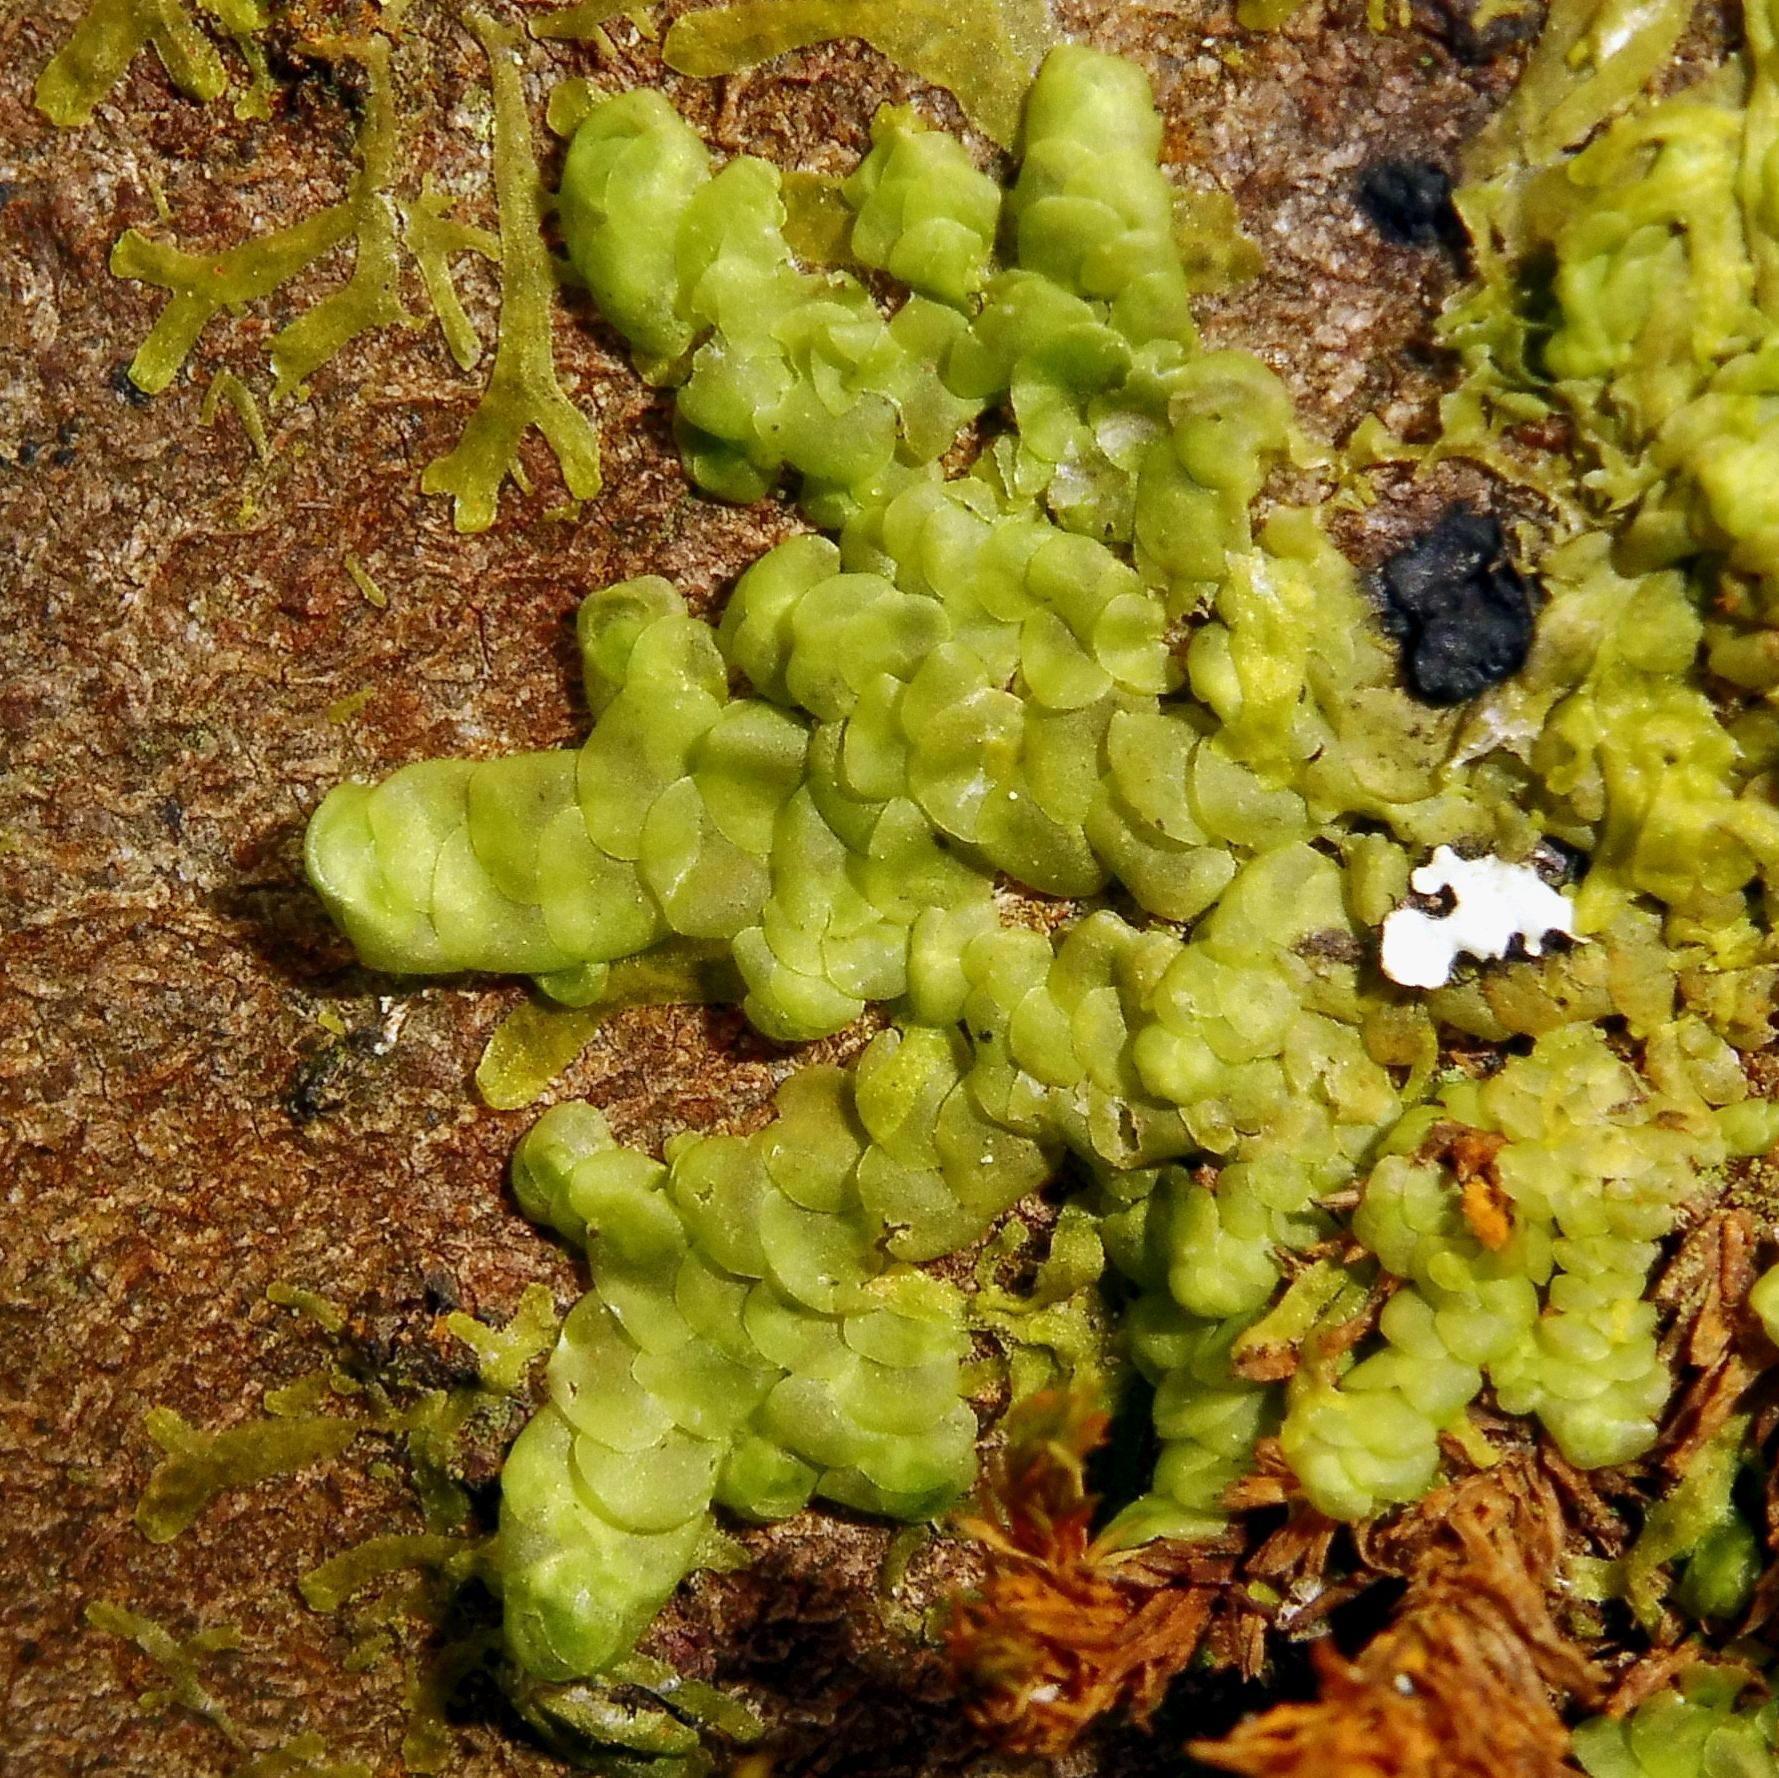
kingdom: Plantae
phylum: Marchantiophyta
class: Jungermanniopsida
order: Porellales
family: Radulaceae
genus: Radula
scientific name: Radula complanata
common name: Flat-leaved scalewort
